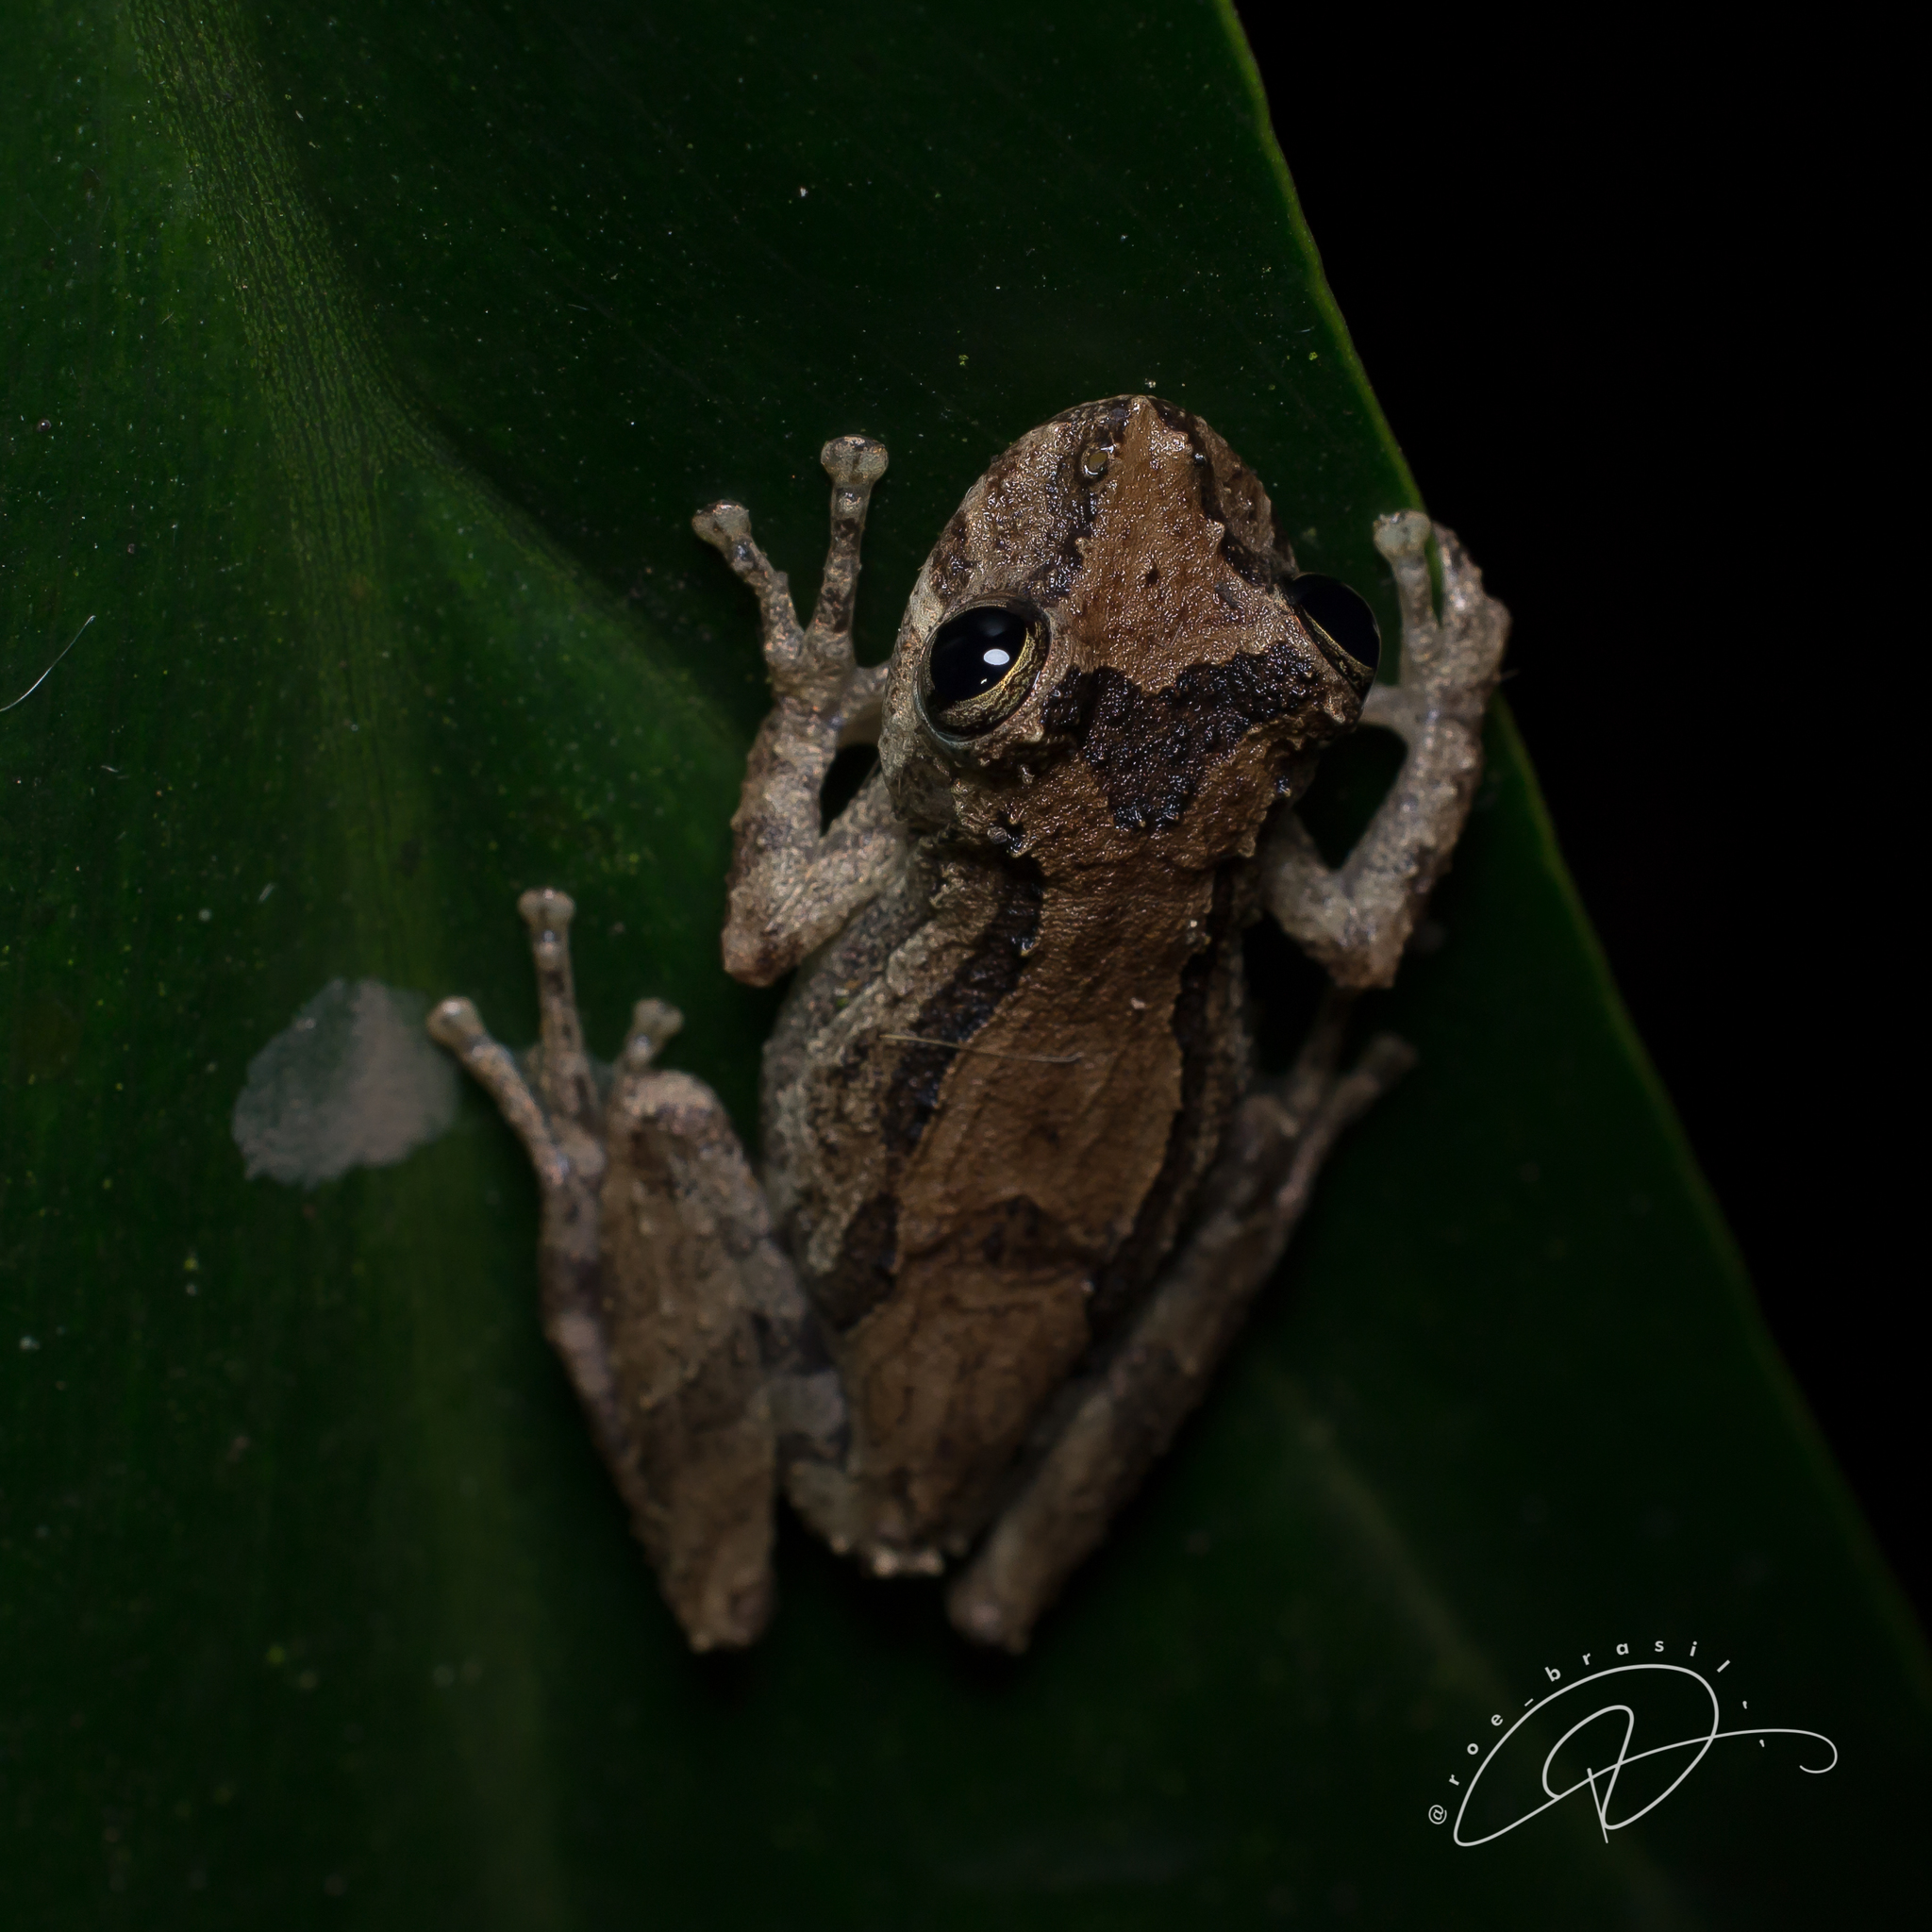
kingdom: Animalia
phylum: Chordata
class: Amphibia
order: Anura
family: Hylidae
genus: Ololygon
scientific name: Ololygon obtriangulata
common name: Sao paulo snouted treefrog
